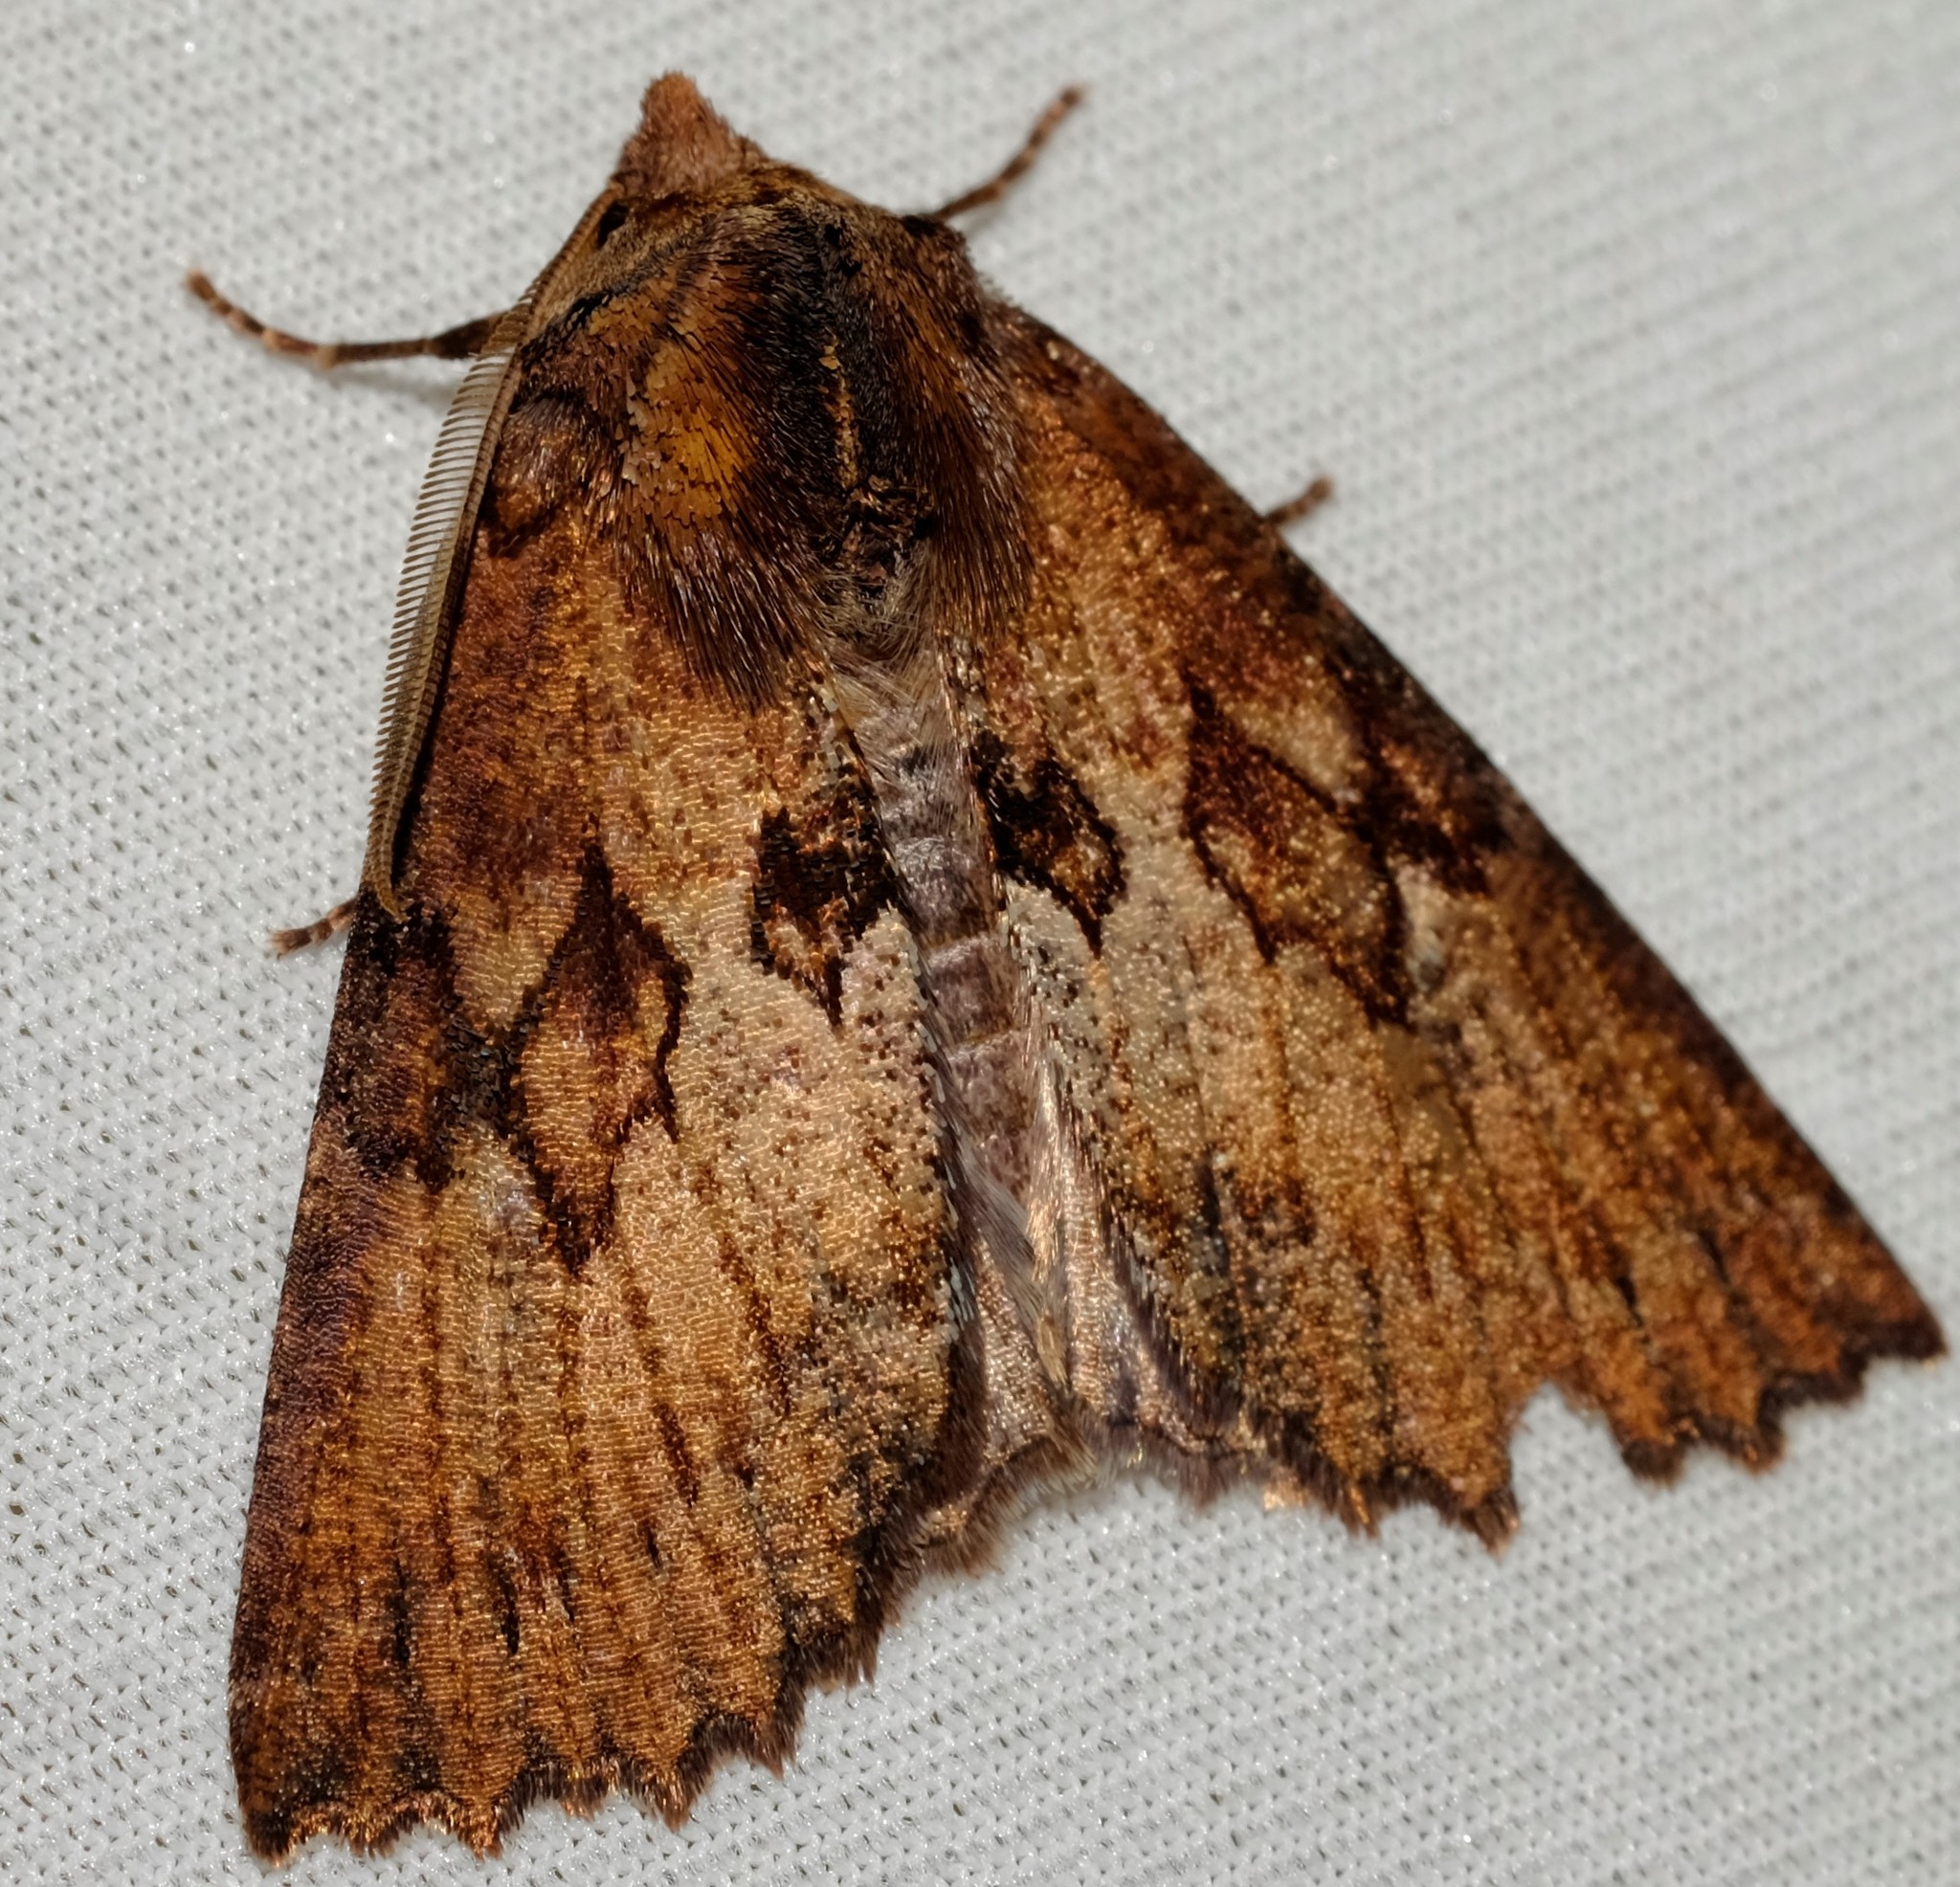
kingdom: Animalia
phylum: Arthropoda
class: Insecta
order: Lepidoptera
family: Geometridae
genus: Nisista
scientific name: Nisista serrata
